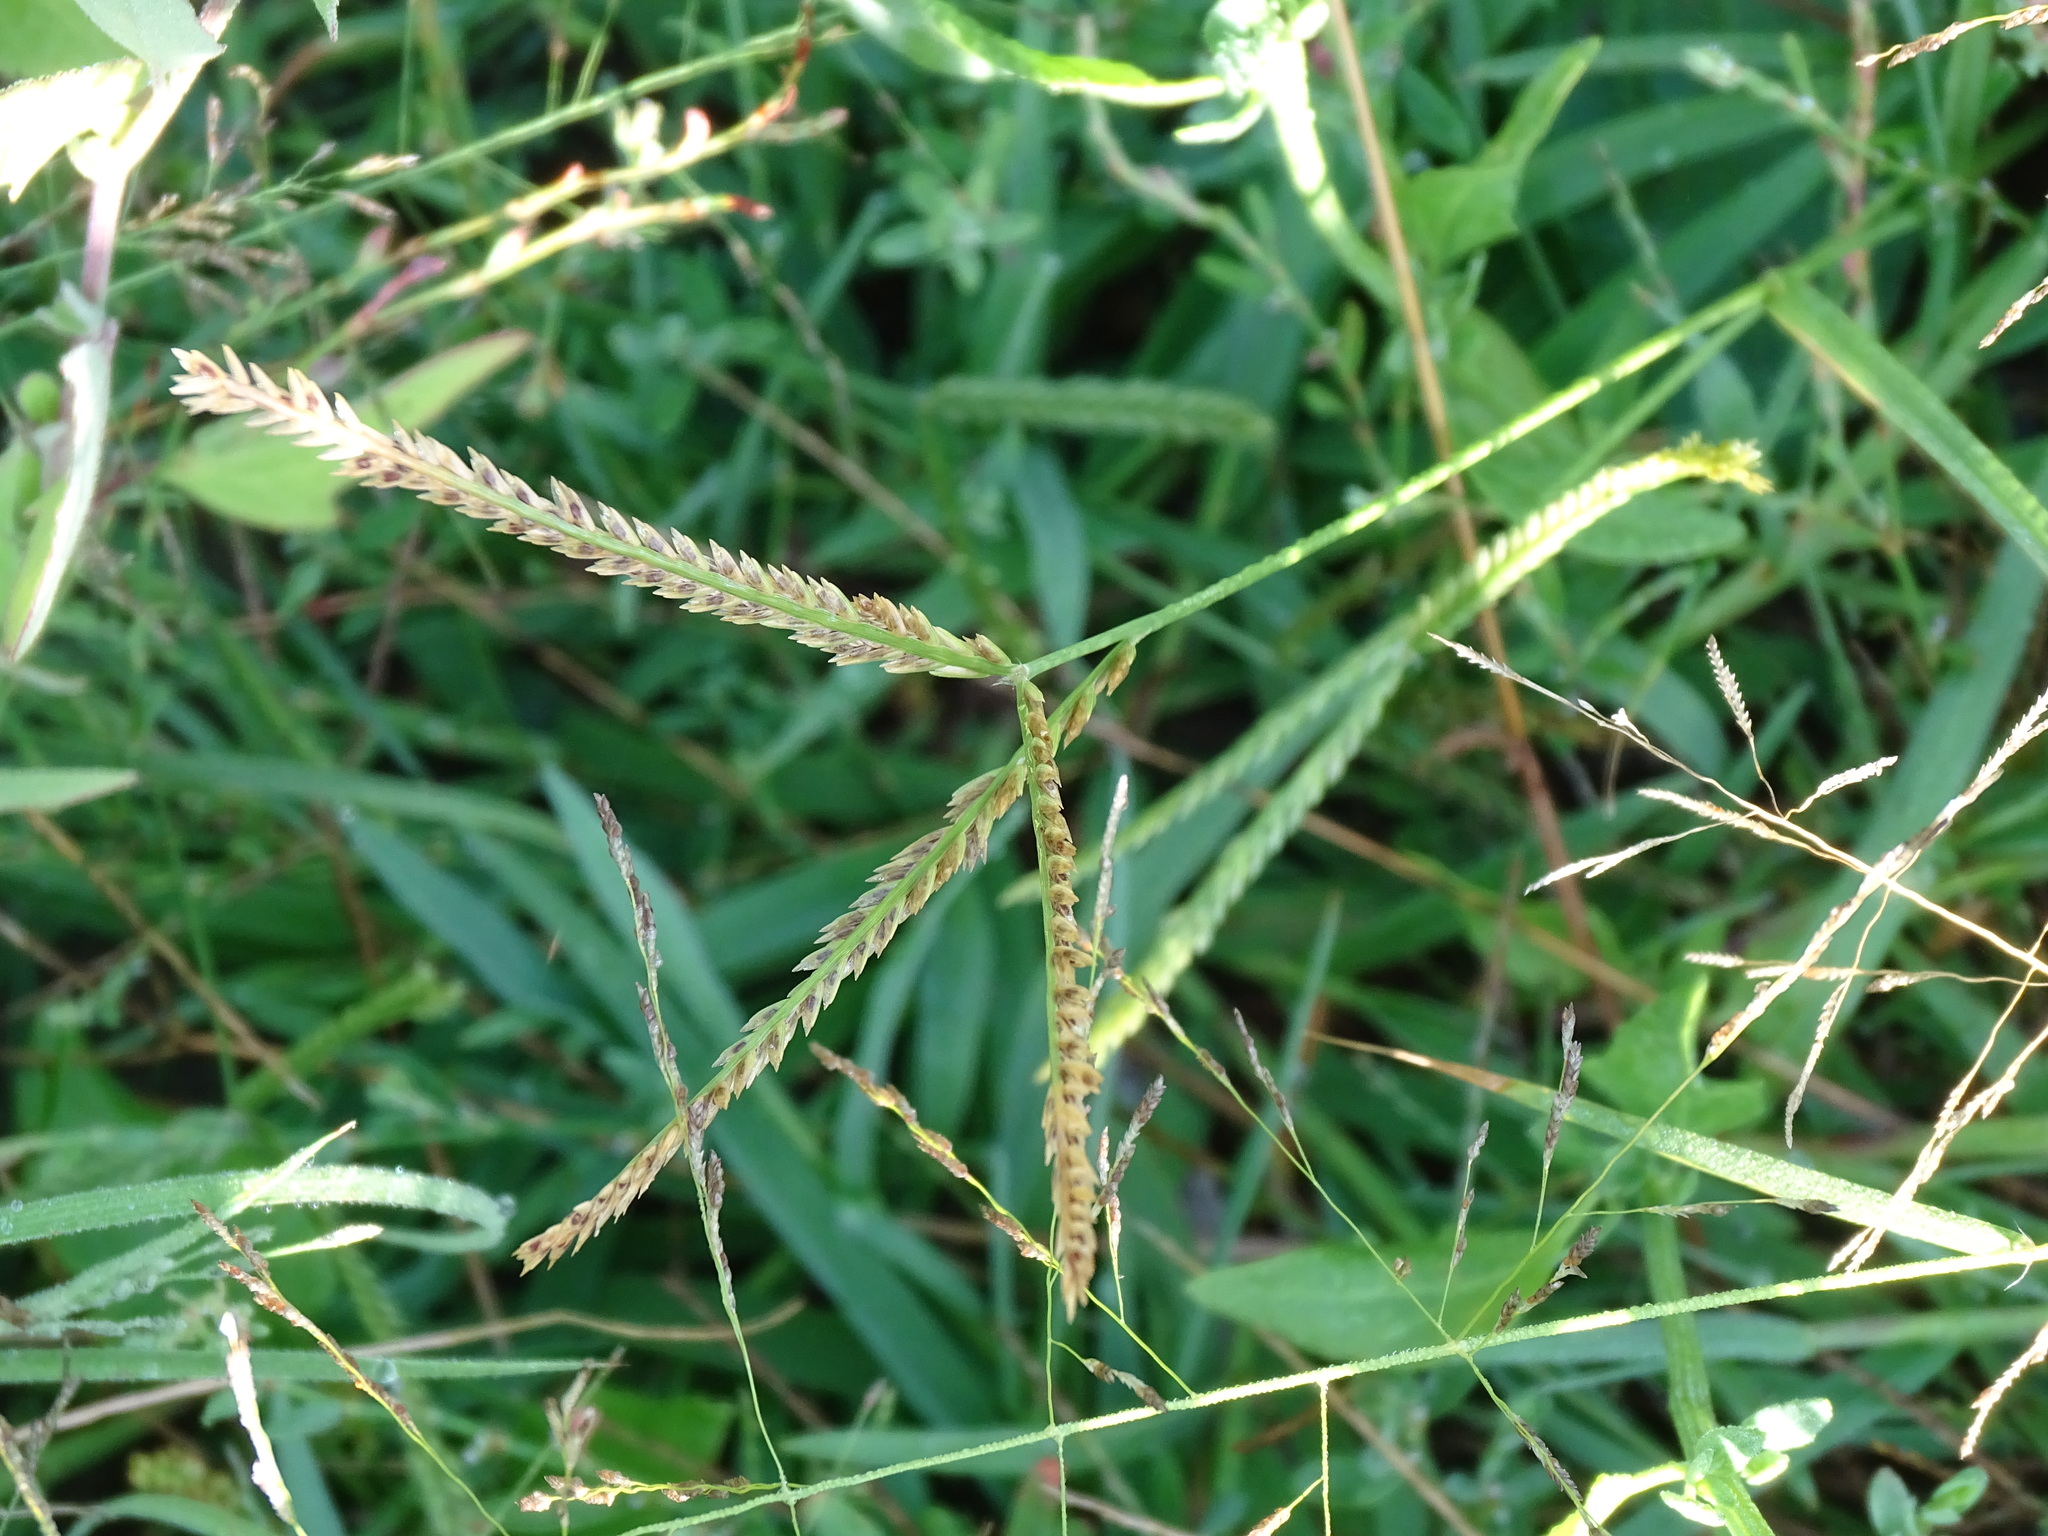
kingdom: Plantae
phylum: Tracheophyta
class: Liliopsida
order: Poales
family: Poaceae
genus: Eleusine
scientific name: Eleusine indica
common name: Yard-grass
